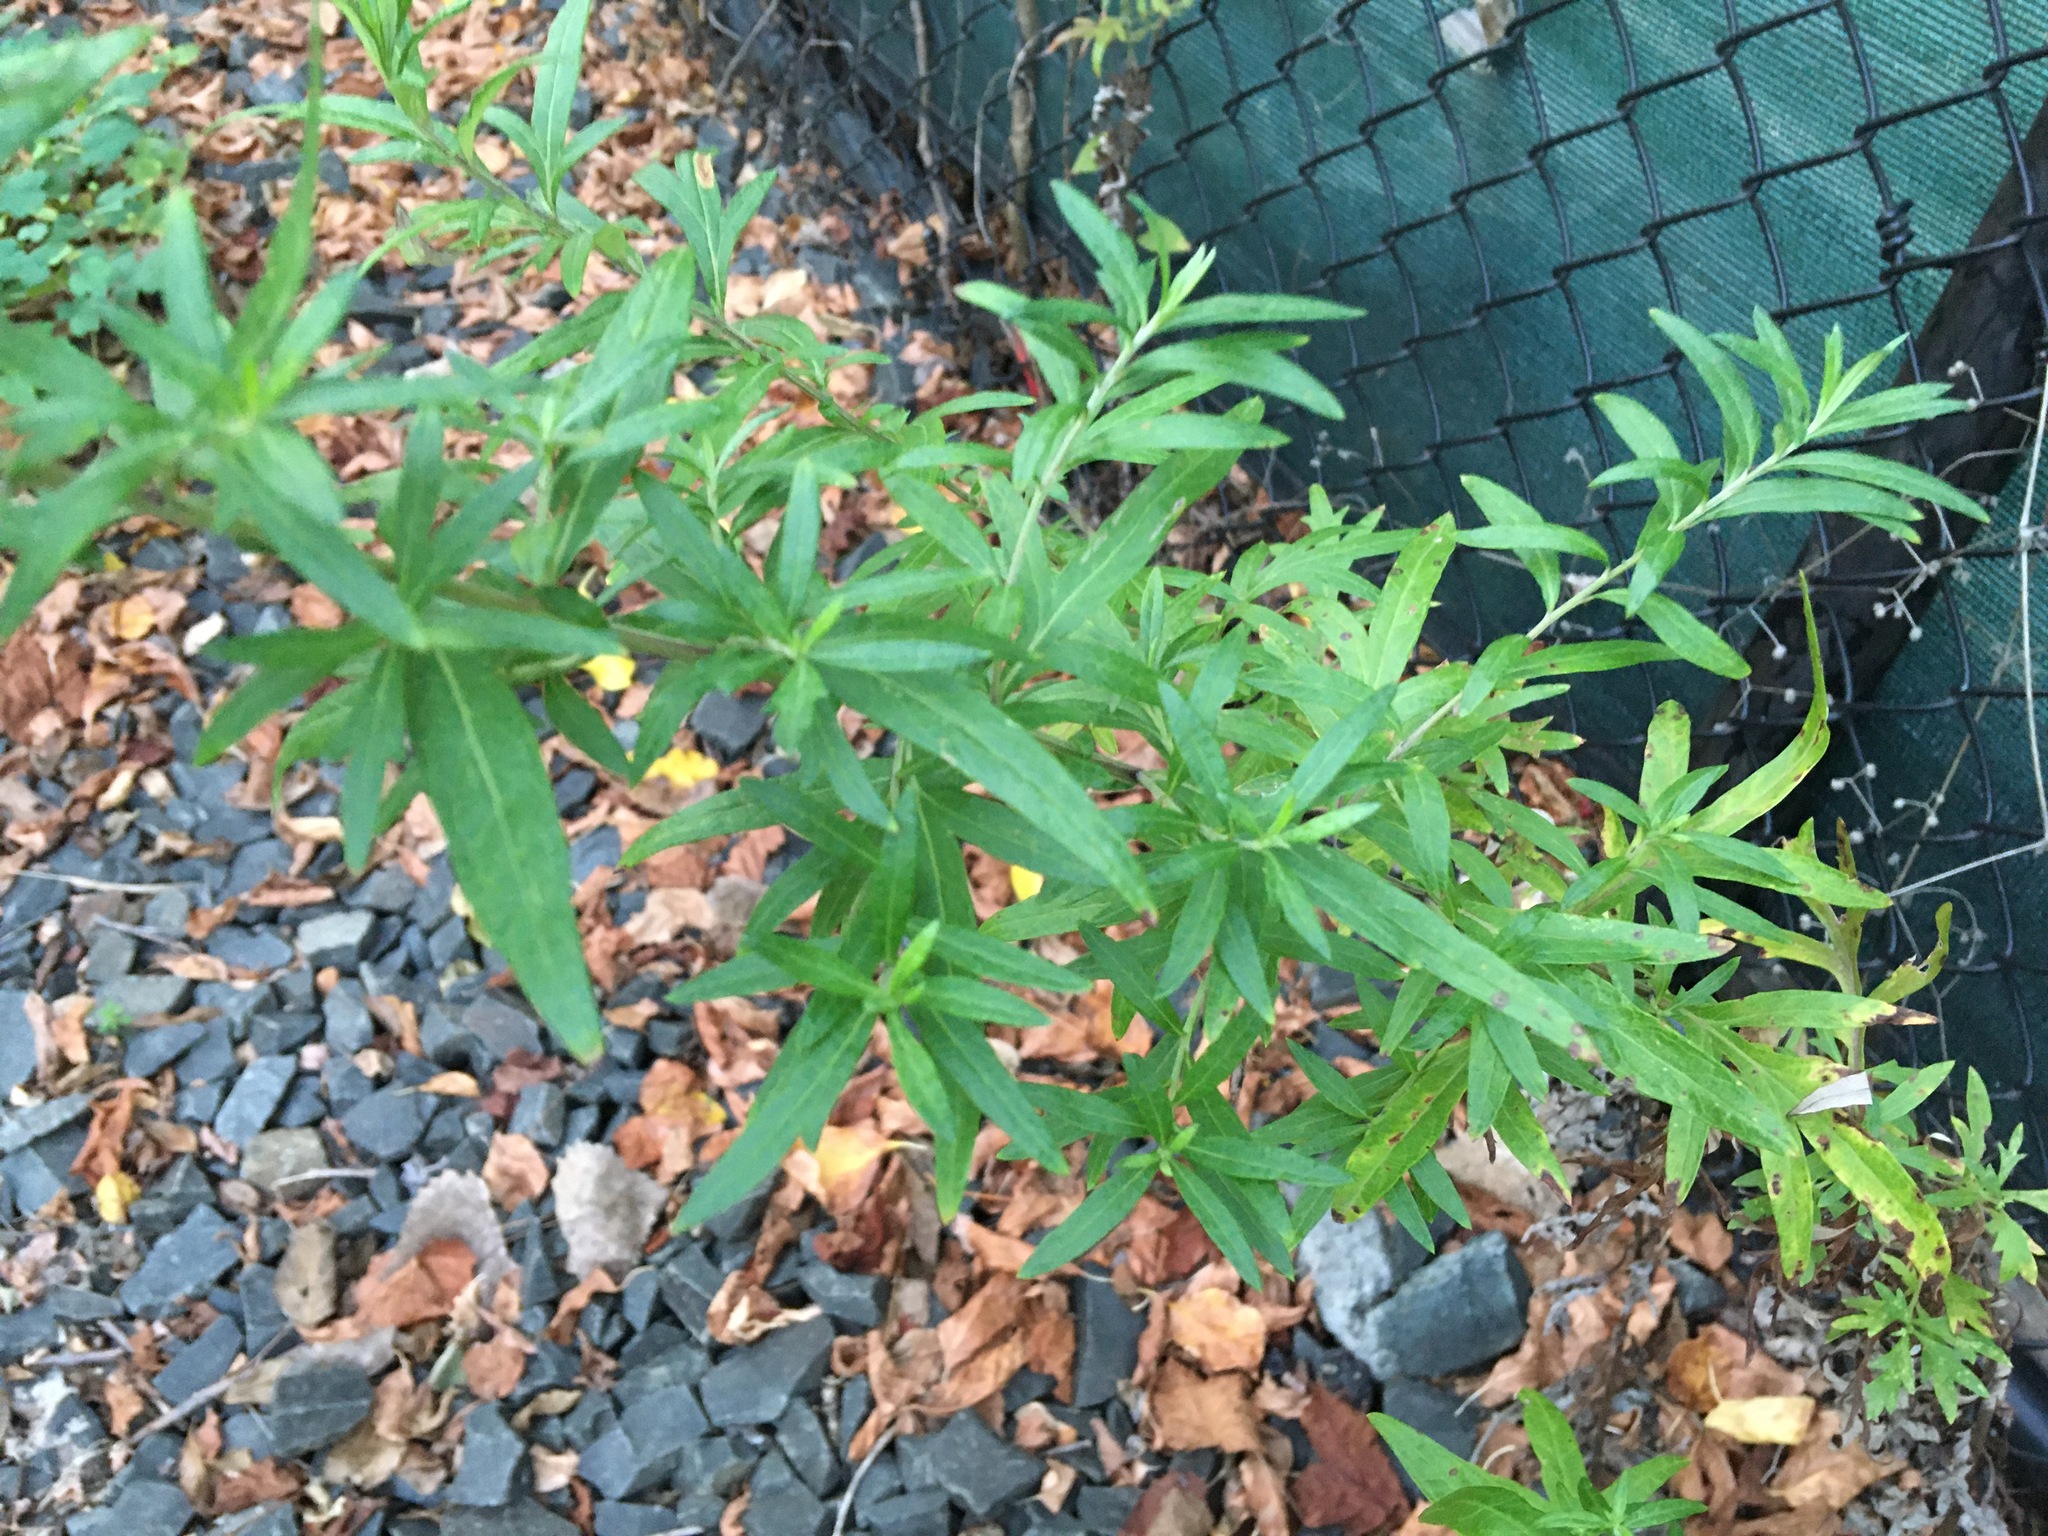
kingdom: Plantae
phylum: Tracheophyta
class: Magnoliopsida
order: Asterales
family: Asteraceae
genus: Artemisia
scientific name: Artemisia vulgaris
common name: Mugwort
